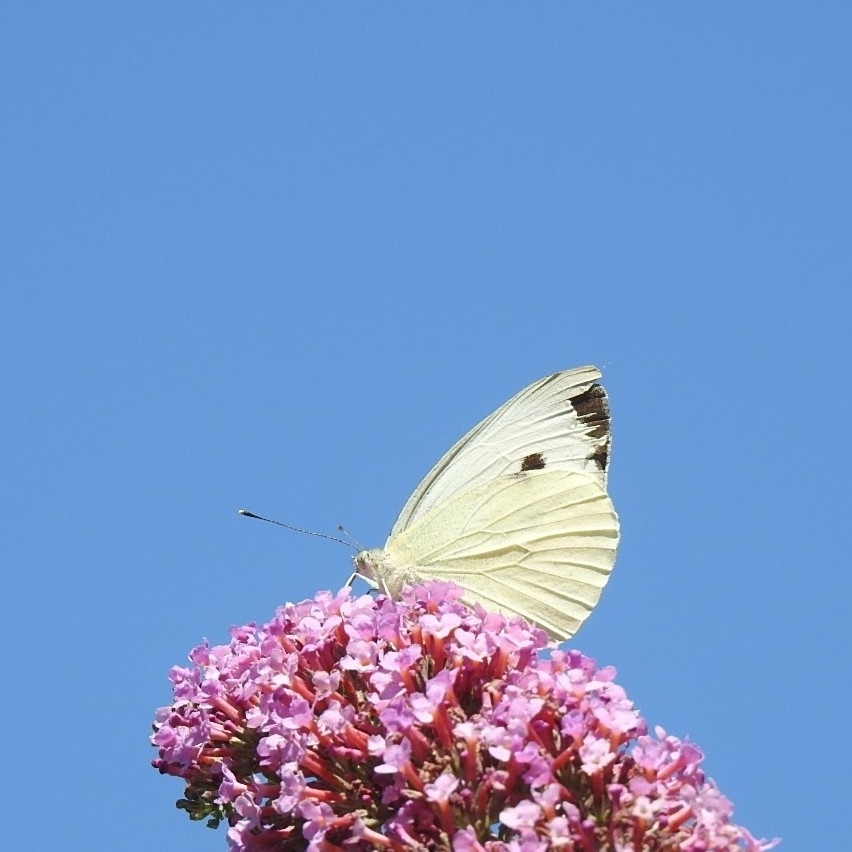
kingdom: Animalia
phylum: Arthropoda
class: Insecta
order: Lepidoptera
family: Pieridae
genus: Pieris
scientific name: Pieris brassicae
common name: Large white
